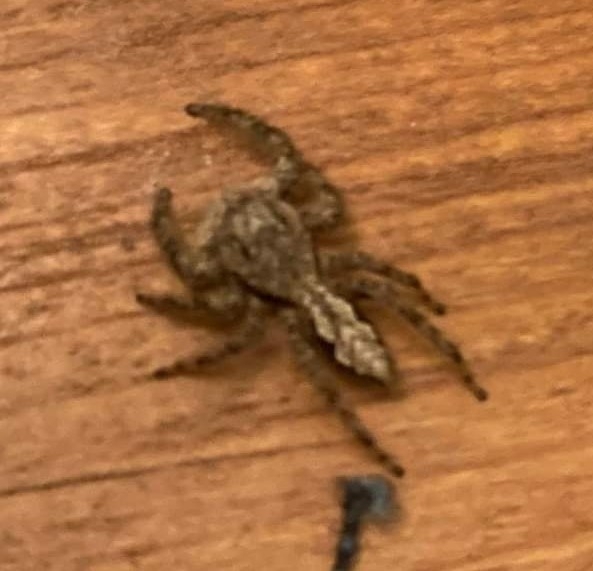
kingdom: Animalia
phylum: Arthropoda
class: Arachnida
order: Araneae
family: Salticidae
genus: Platycryptus
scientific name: Platycryptus undatus
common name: Tan jumping spider
